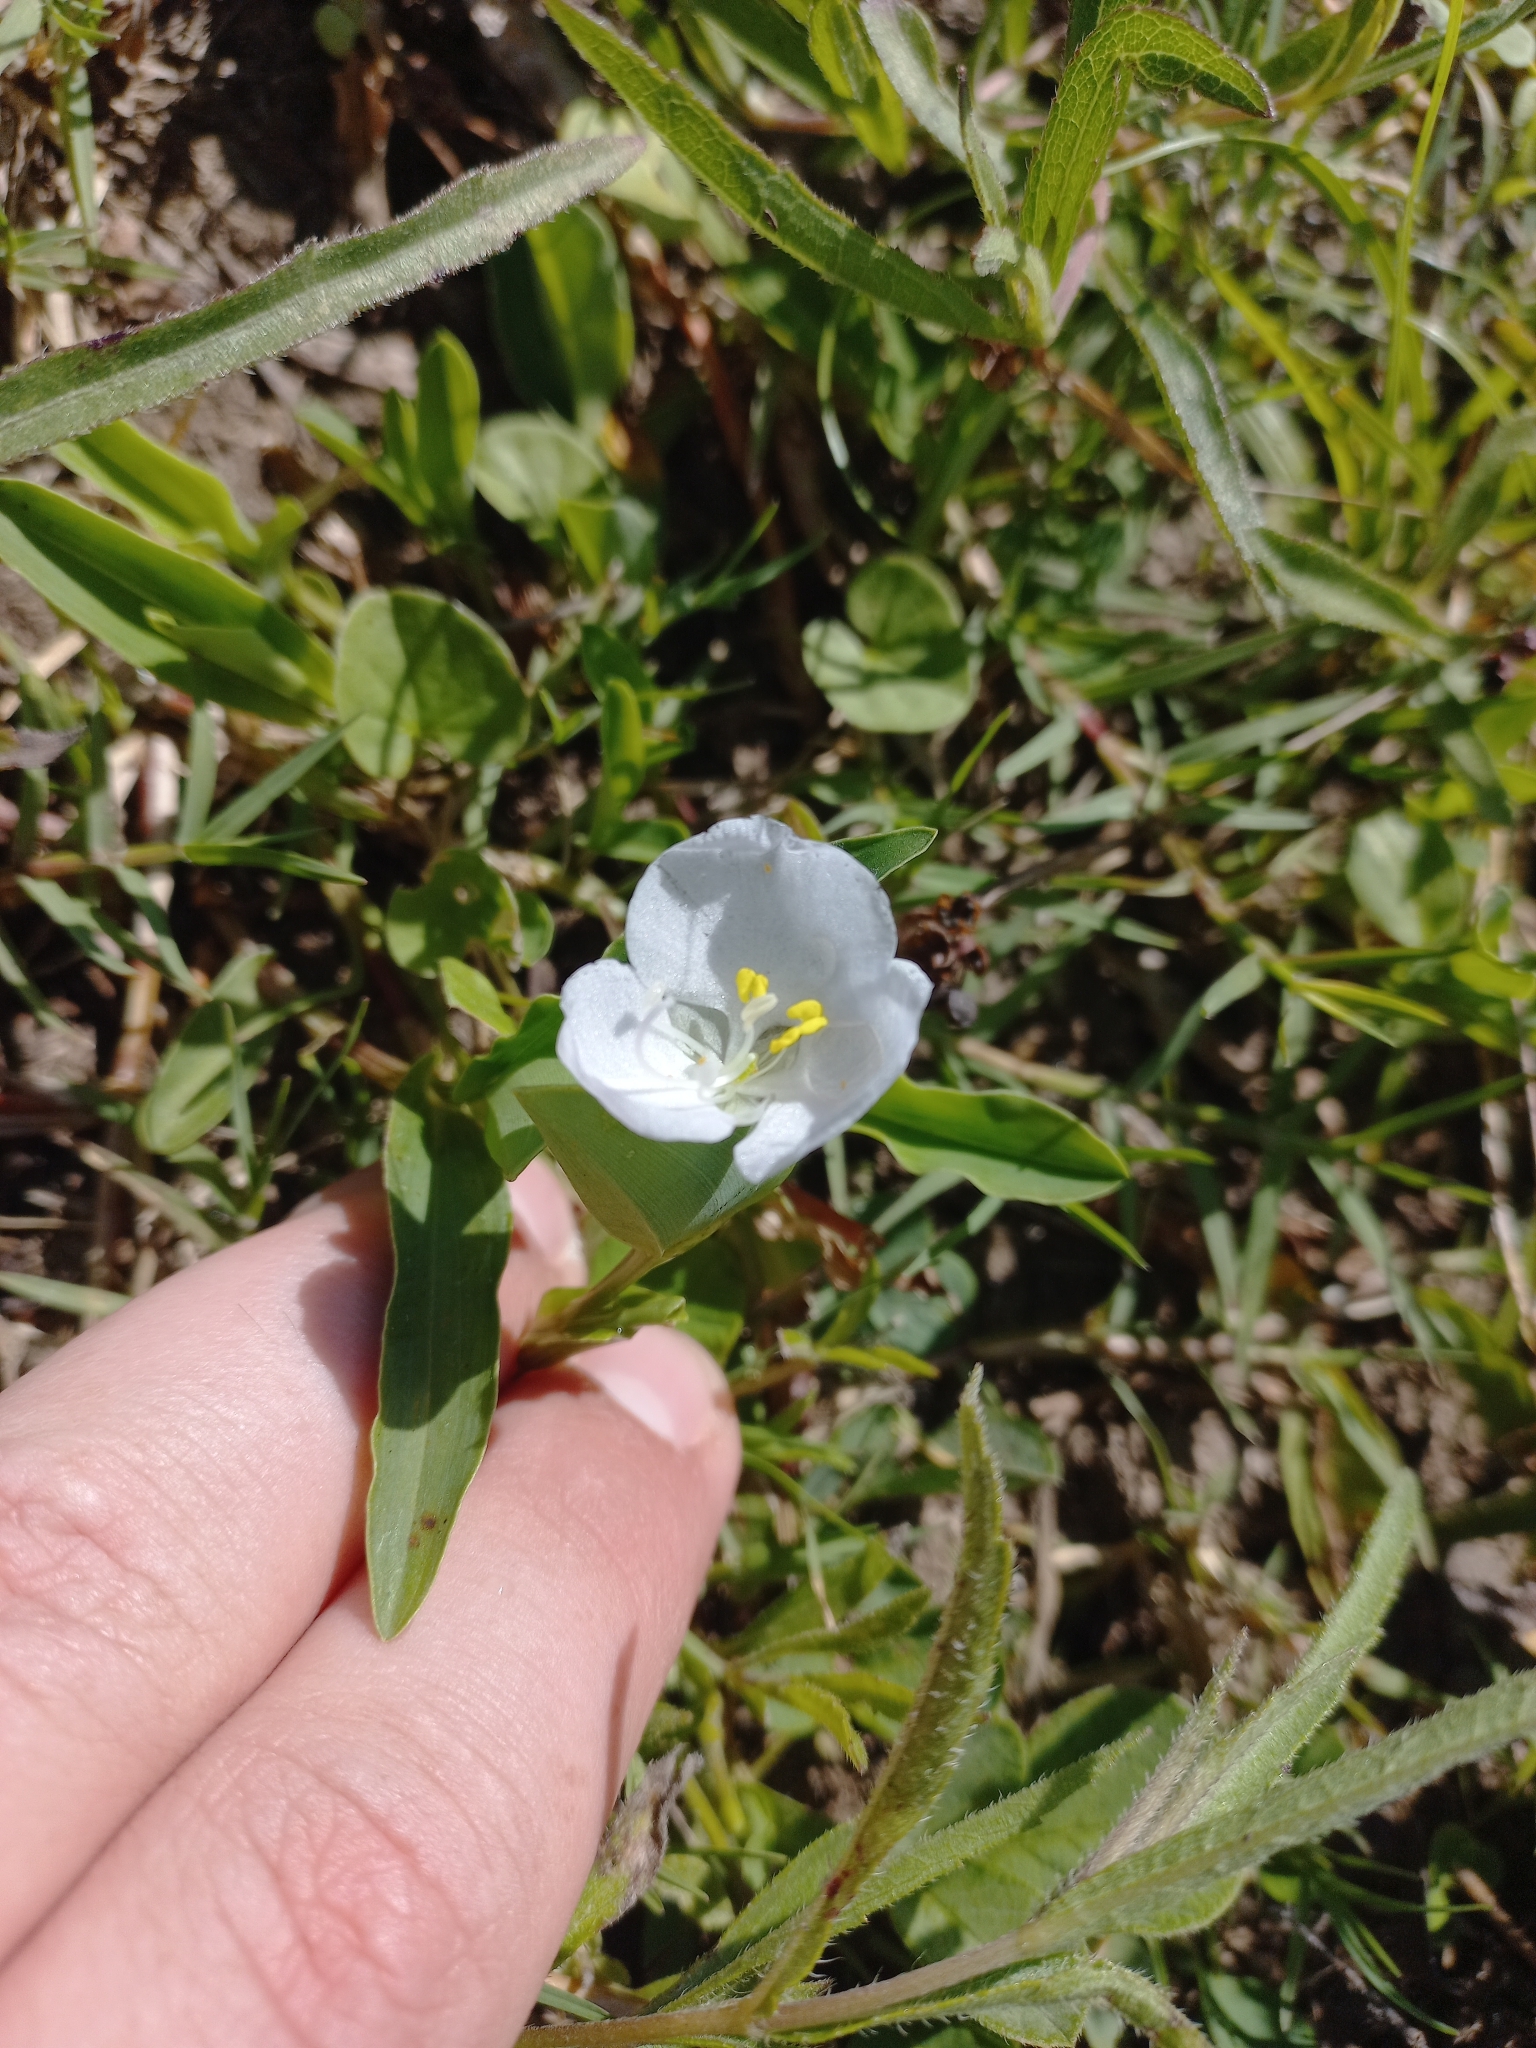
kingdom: Plantae
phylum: Tracheophyta
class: Liliopsida
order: Commelinales
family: Commelinaceae
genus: Commelina
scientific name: Commelina platyphylla
